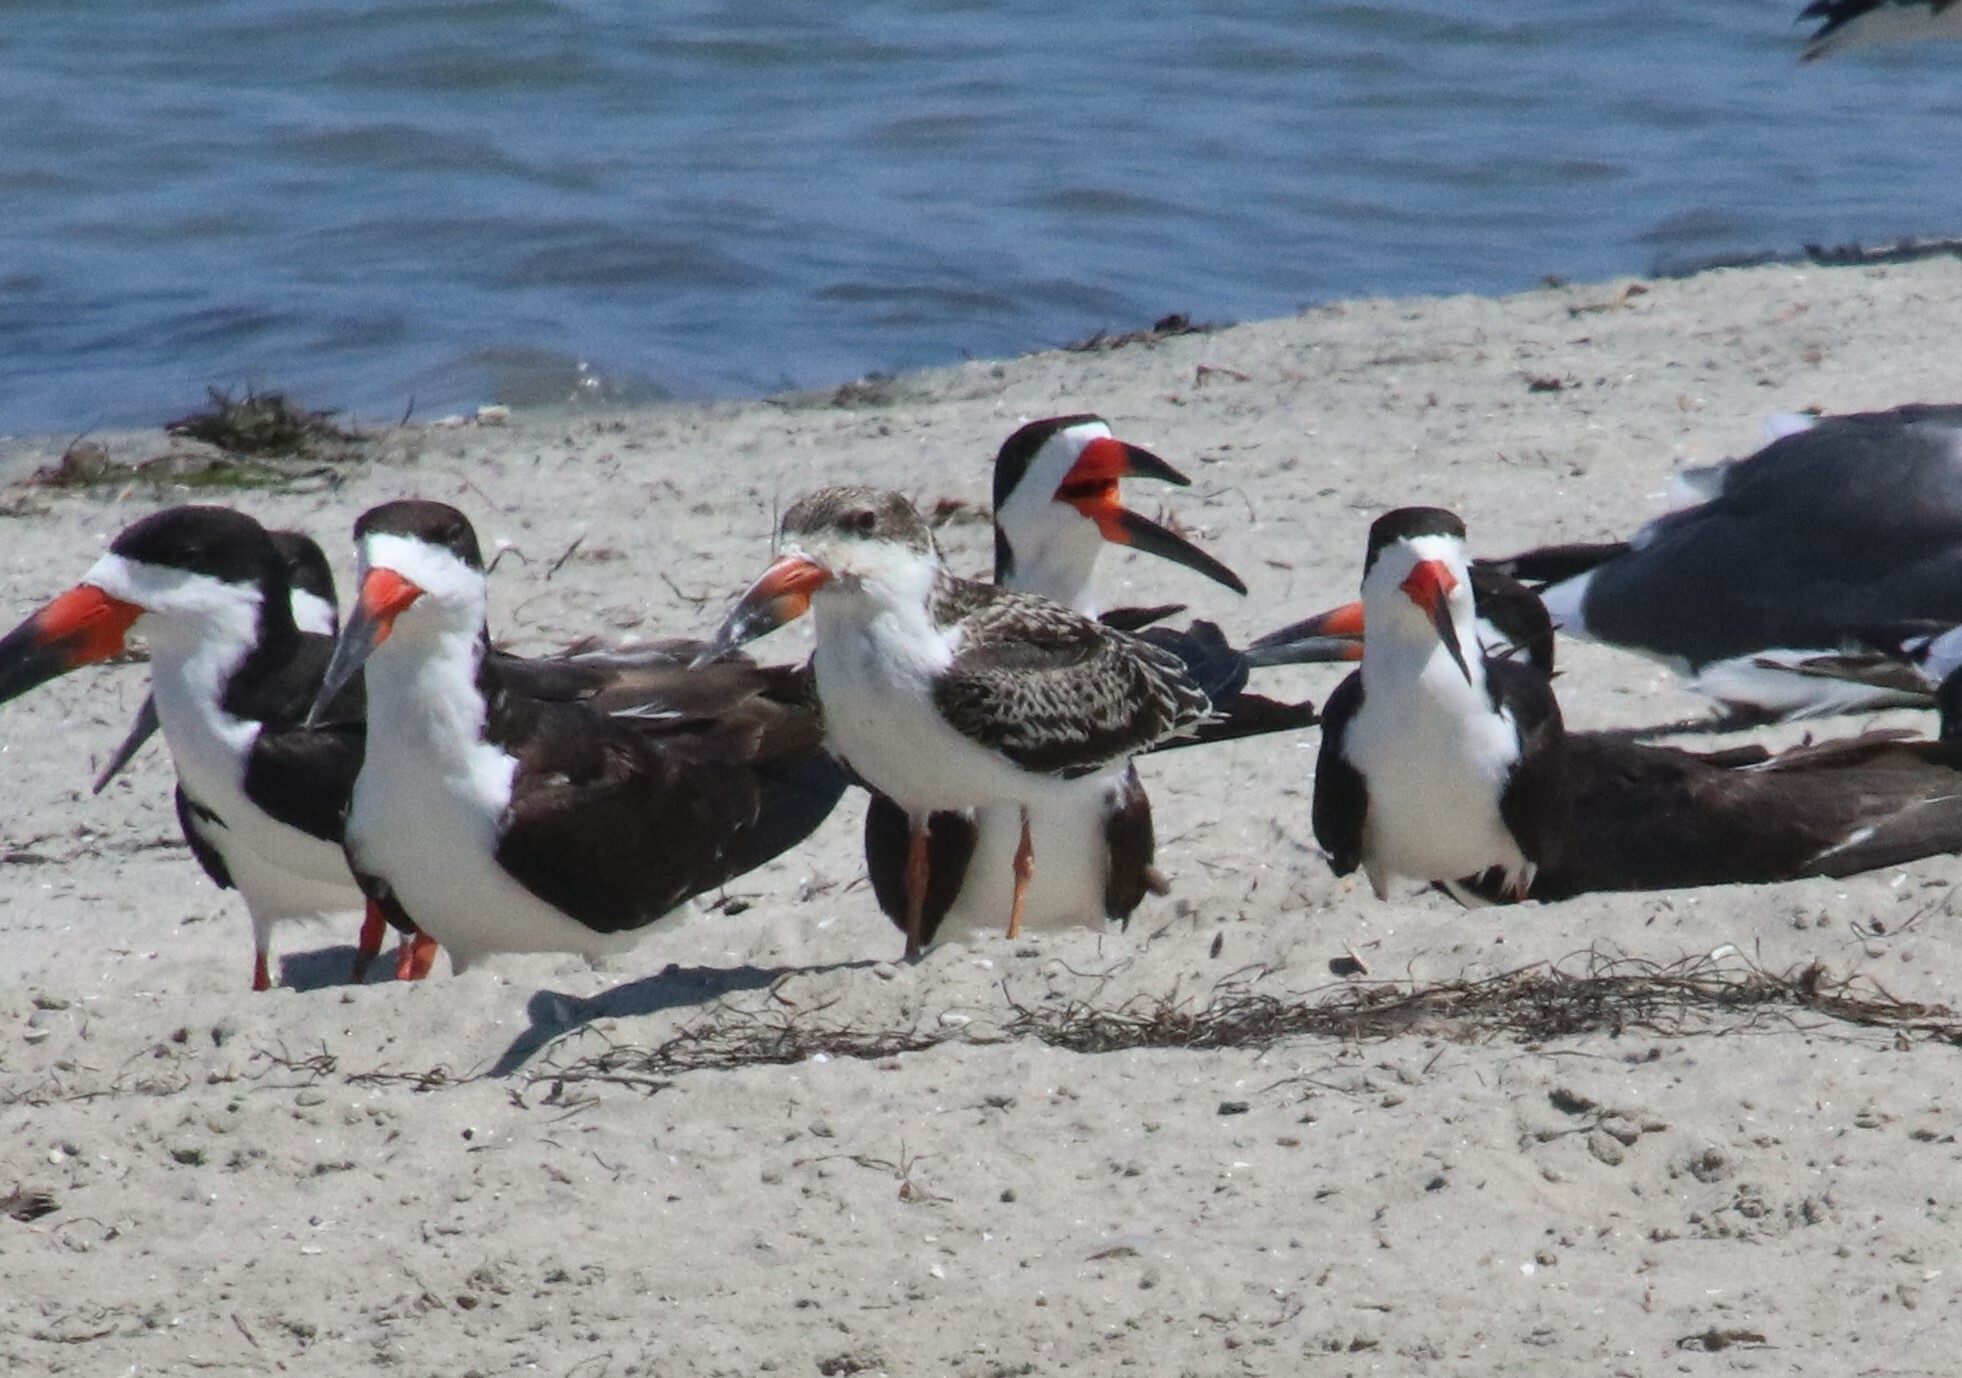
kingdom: Animalia
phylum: Chordata
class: Aves
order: Charadriiformes
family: Laridae
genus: Rynchops
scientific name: Rynchops niger
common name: Black skimmer
